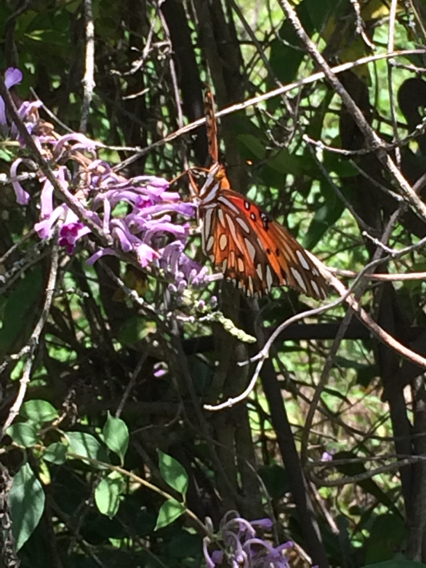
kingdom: Animalia
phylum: Arthropoda
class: Insecta
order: Lepidoptera
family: Nymphalidae
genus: Dione
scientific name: Dione vanillae
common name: Gulf fritillary
